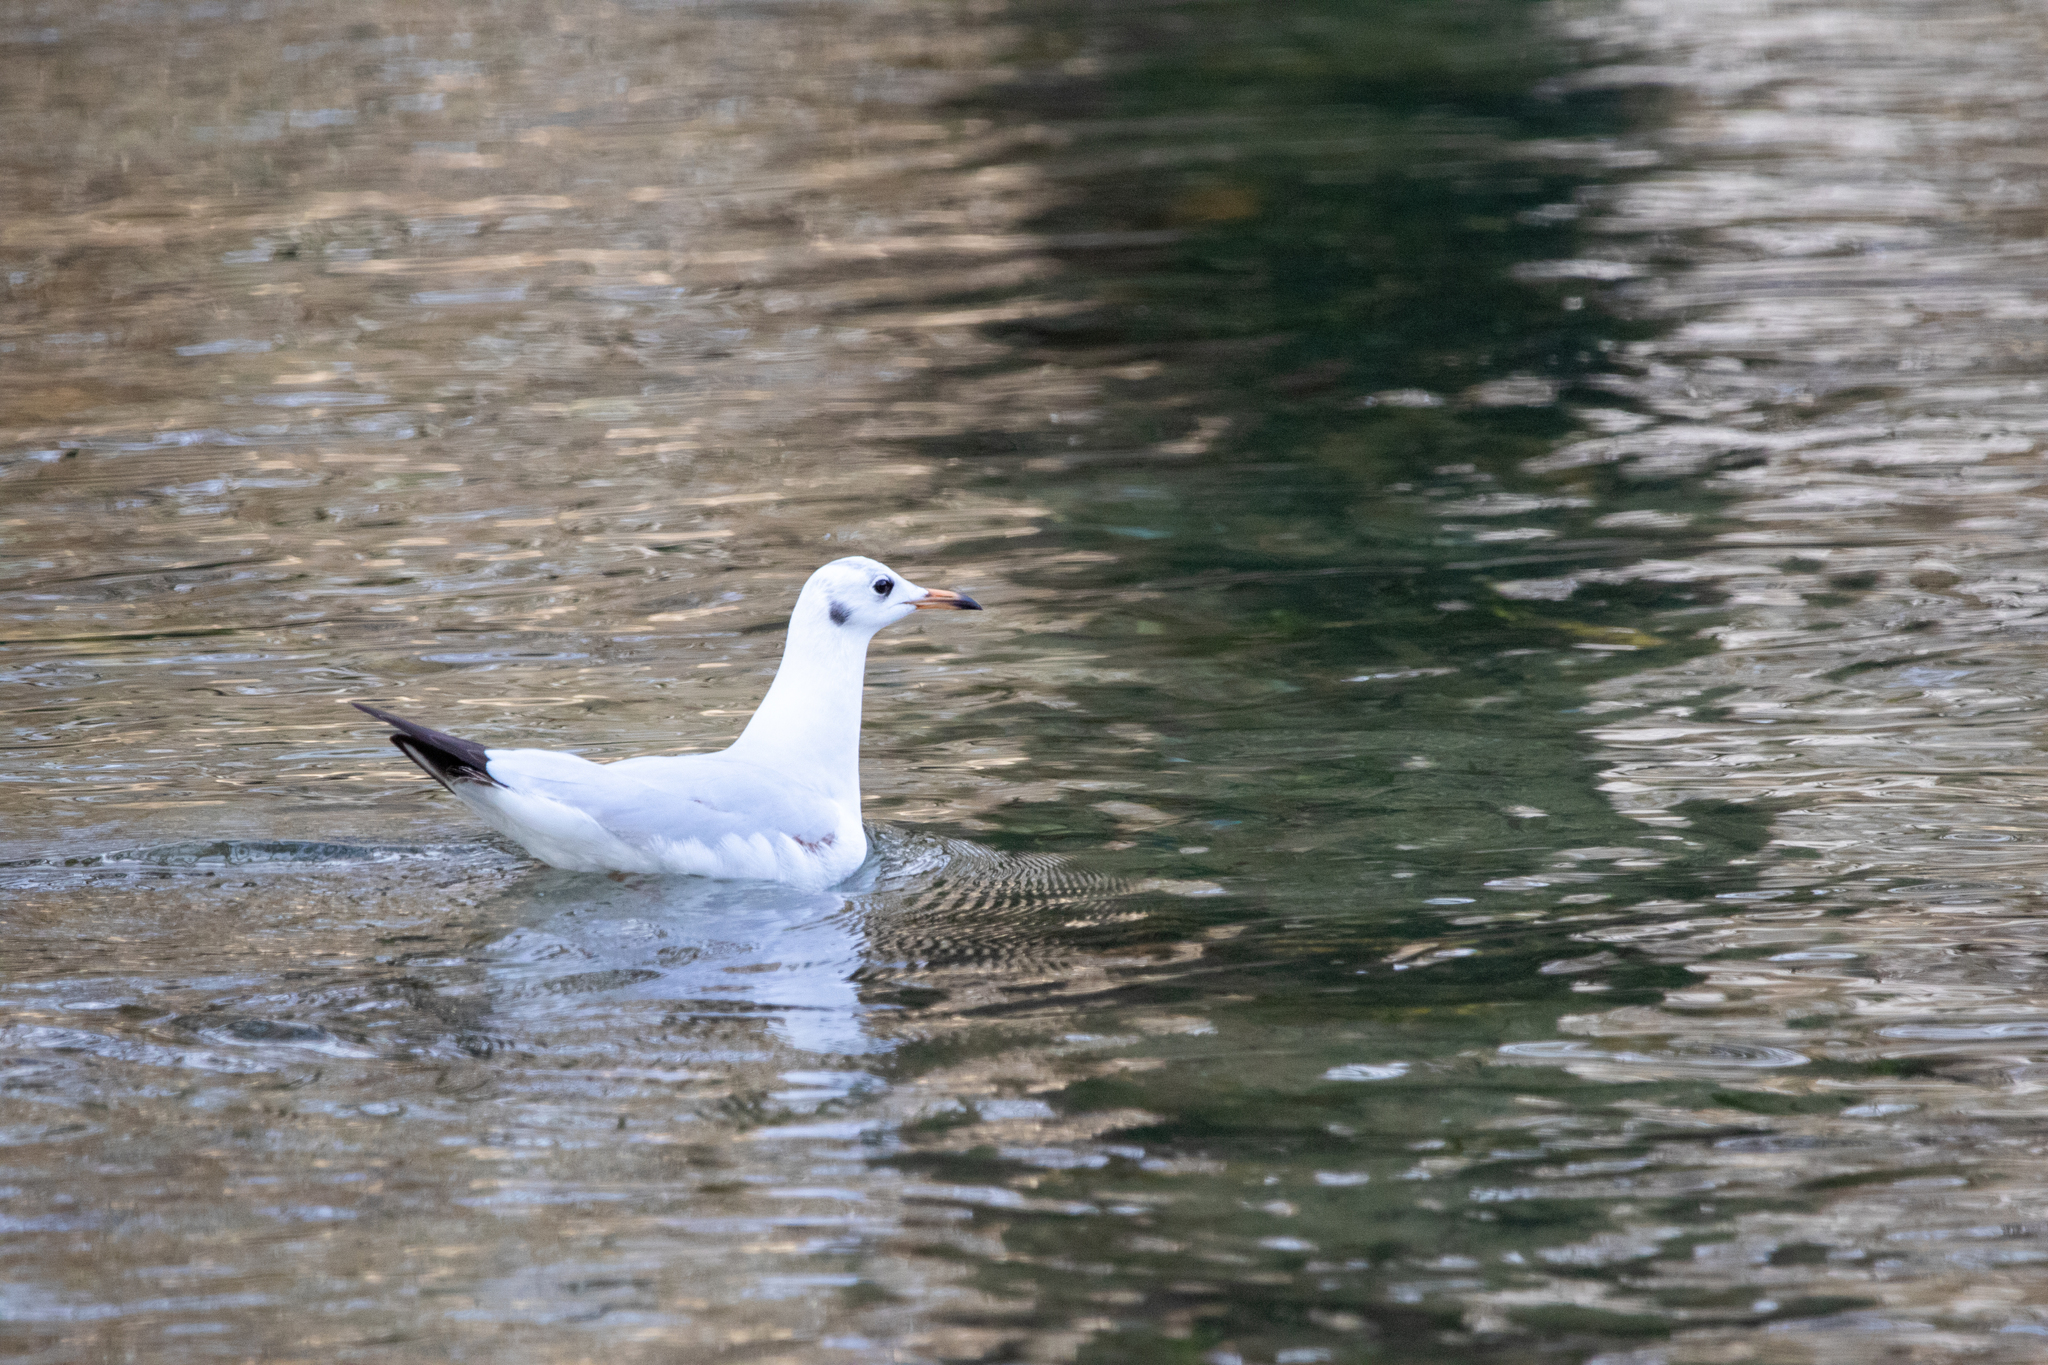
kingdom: Animalia
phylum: Chordata
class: Aves
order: Charadriiformes
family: Laridae
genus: Chroicocephalus
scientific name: Chroicocephalus ridibundus
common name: Black-headed gull
